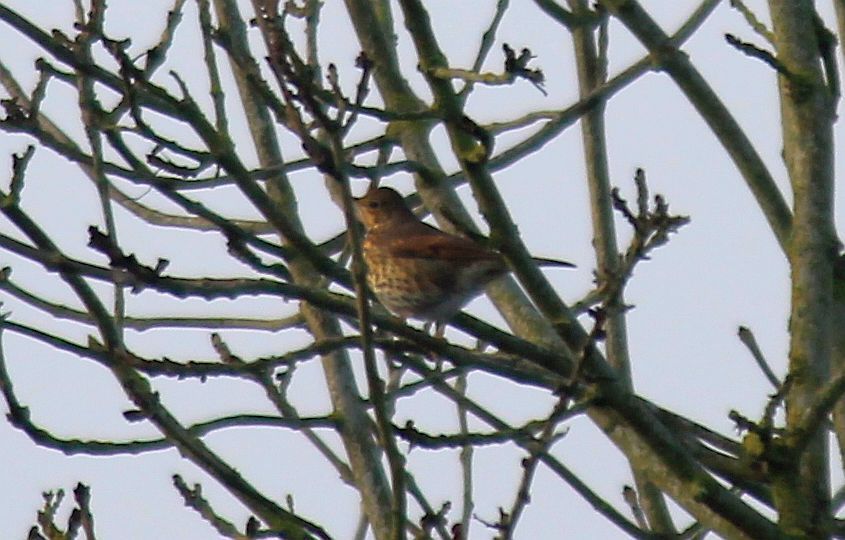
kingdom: Animalia
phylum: Chordata
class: Aves
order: Passeriformes
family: Turdidae
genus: Turdus
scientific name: Turdus philomelos
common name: Song thrush
